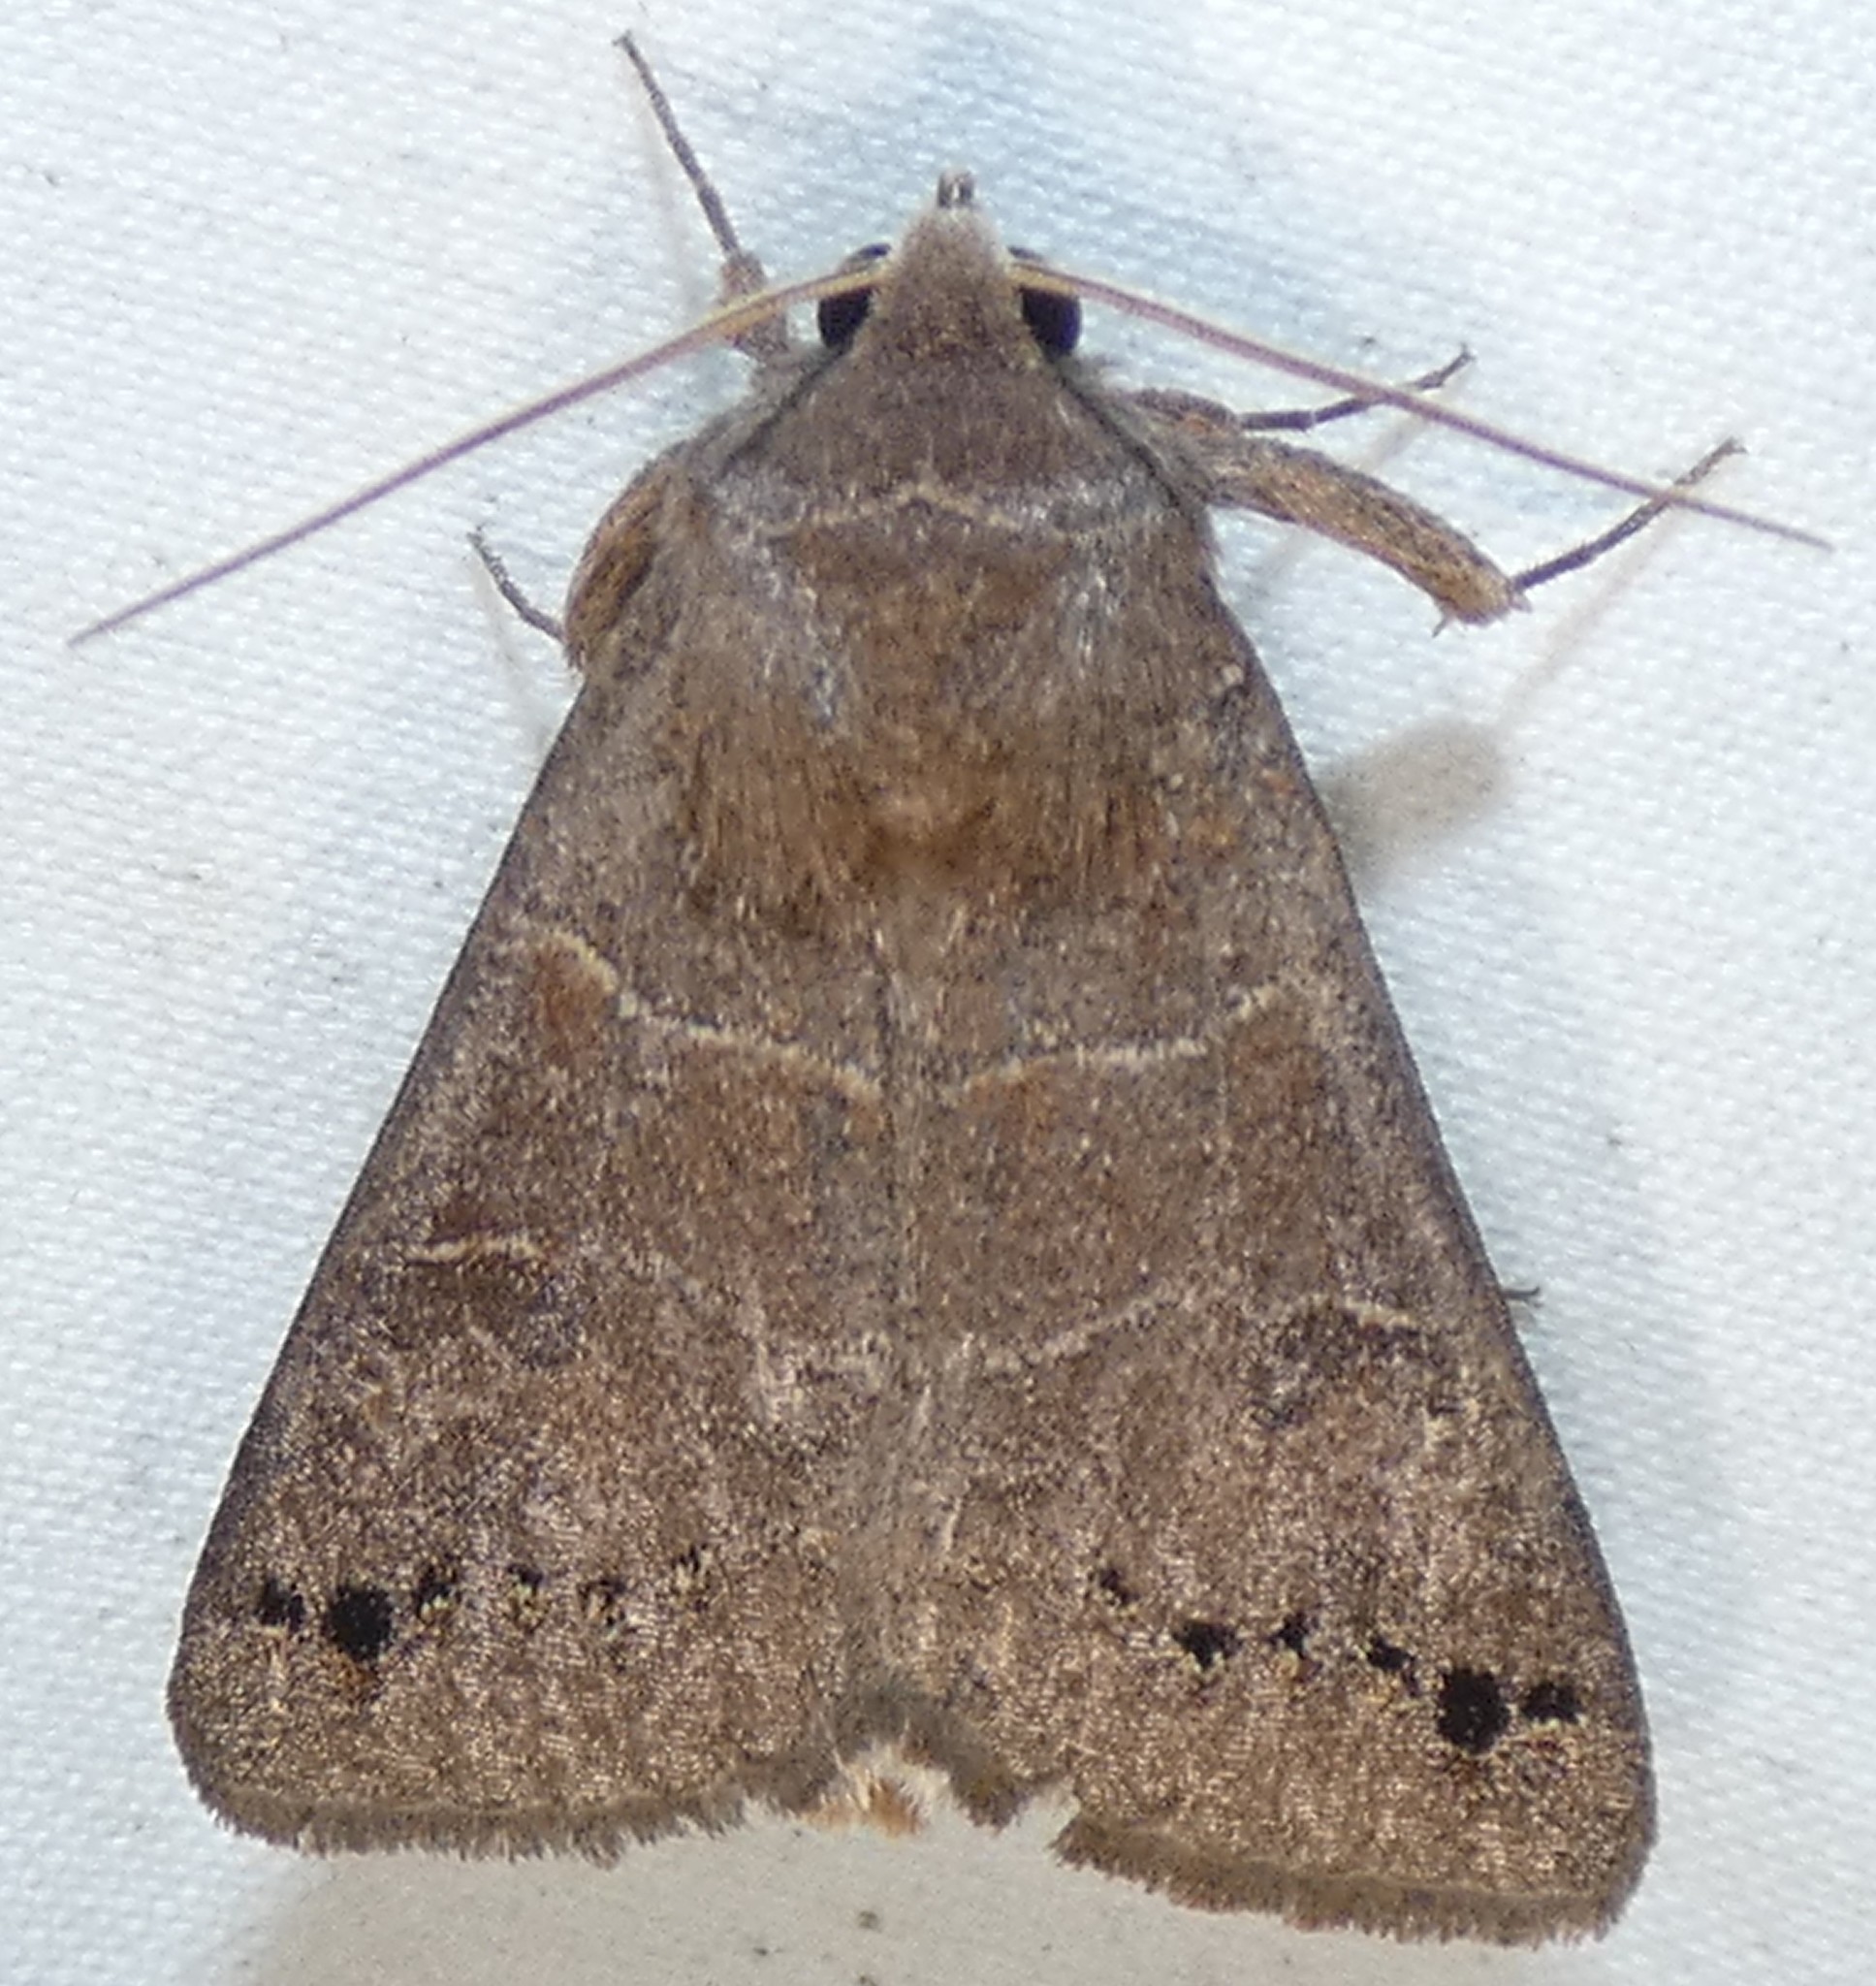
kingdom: Animalia
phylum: Arthropoda
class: Insecta
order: Lepidoptera
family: Erebidae
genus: Cissusa
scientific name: Cissusa spadix
